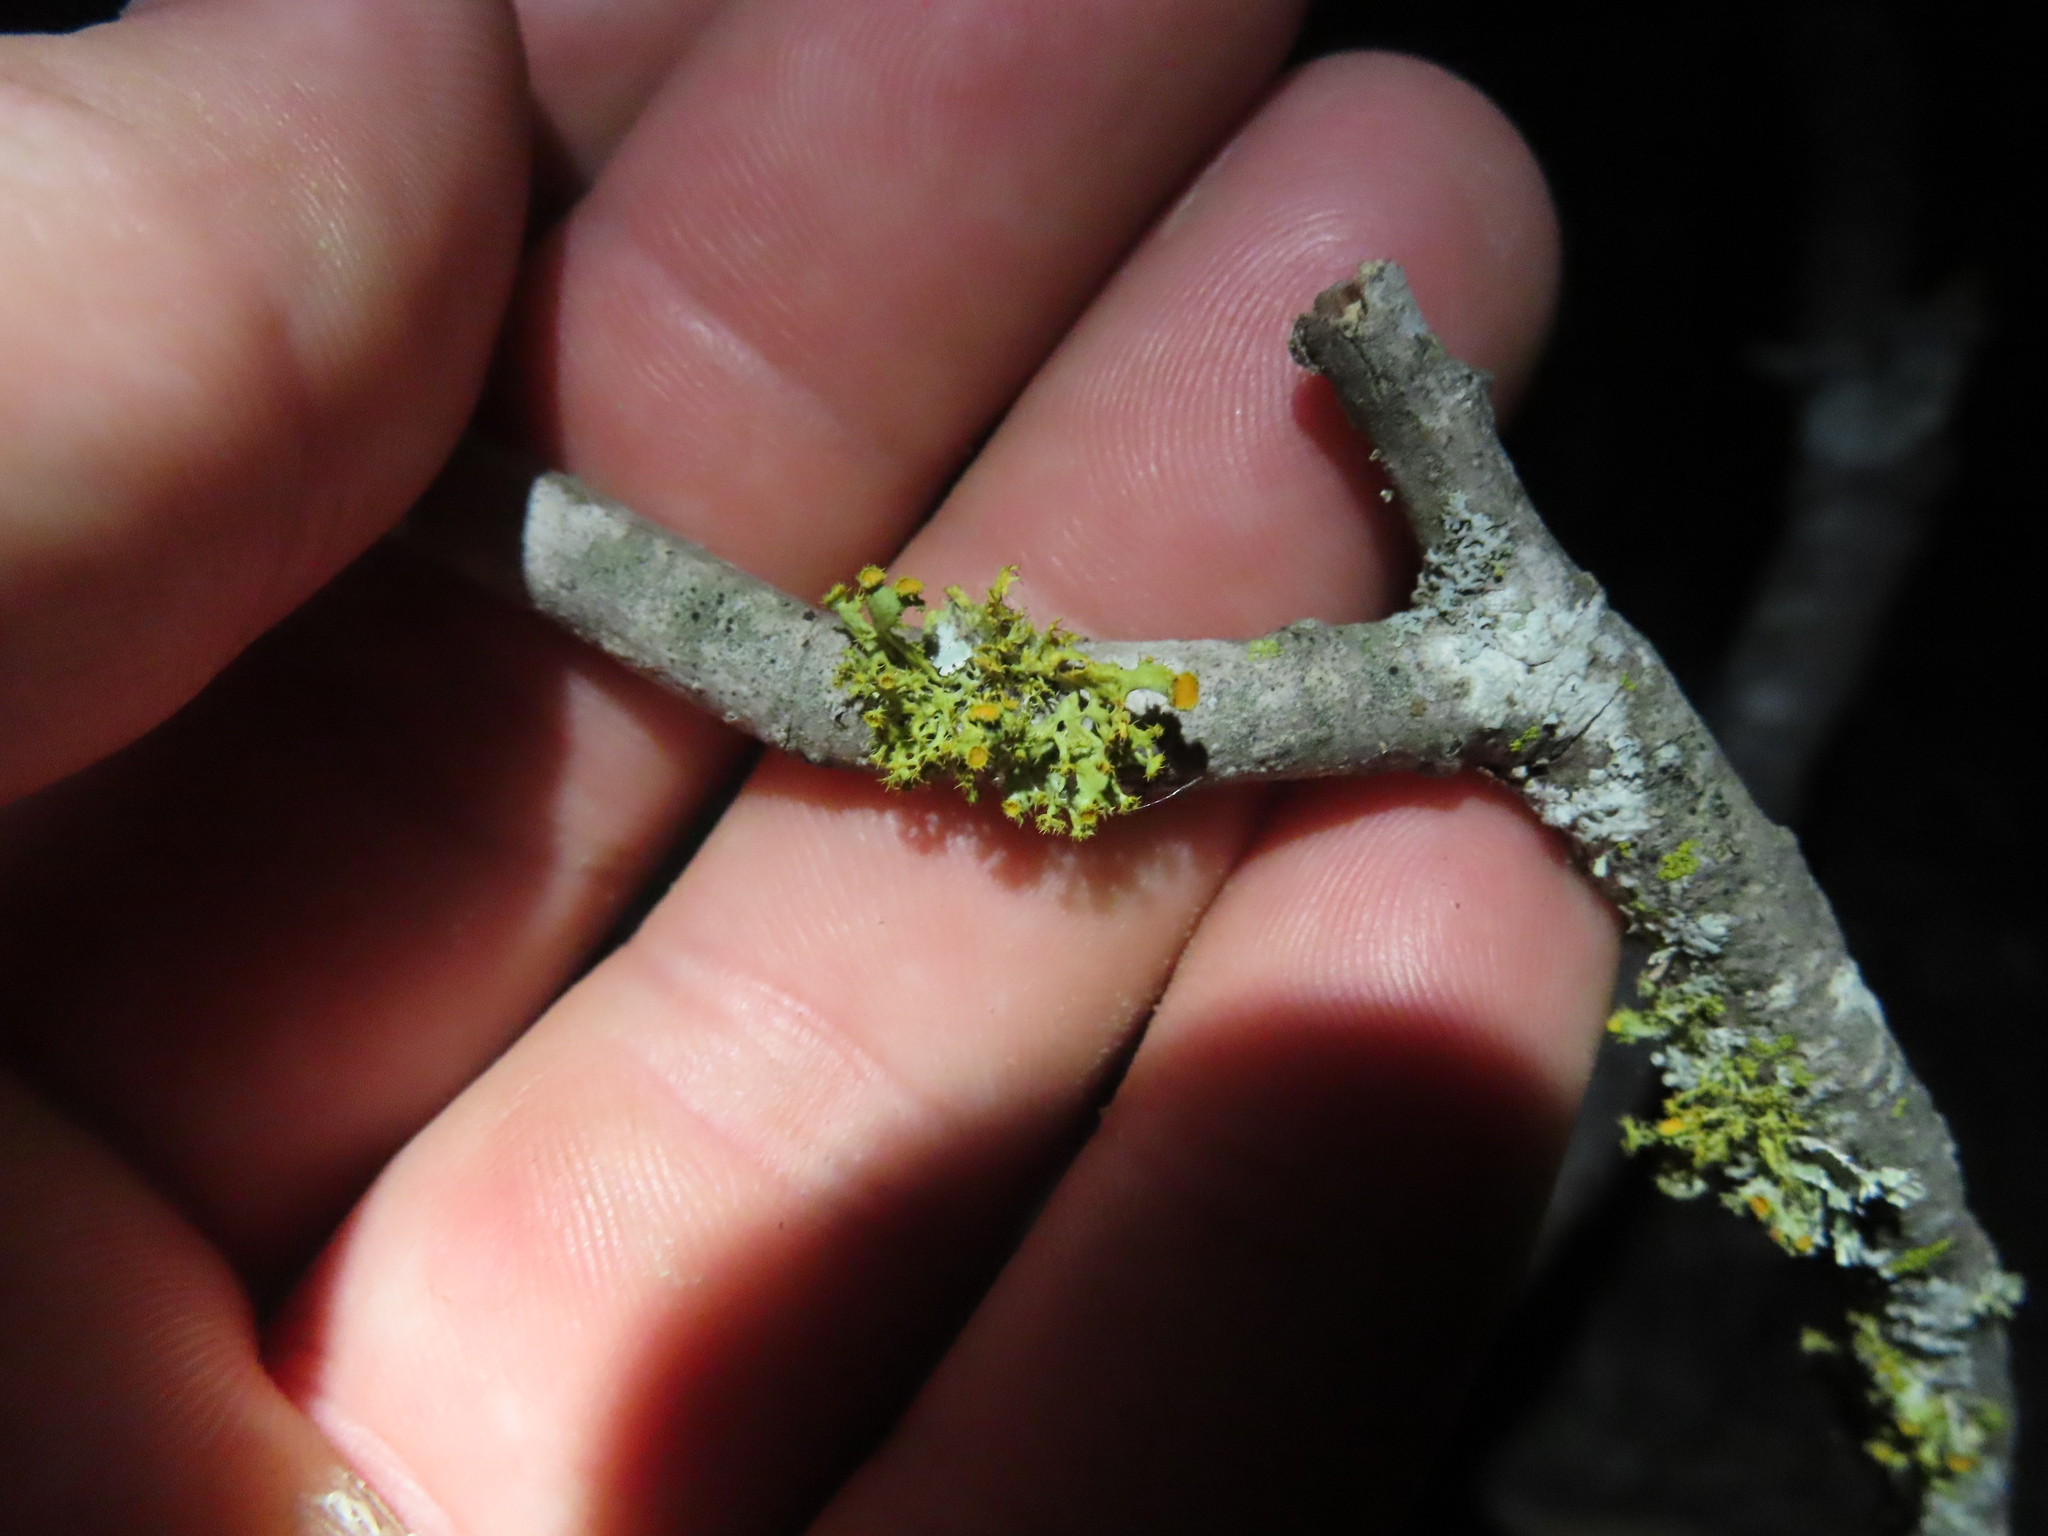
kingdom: Fungi
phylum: Ascomycota
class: Lecanoromycetes
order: Teloschistales
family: Teloschistaceae
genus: Niorma
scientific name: Niorma chrysophthalma
